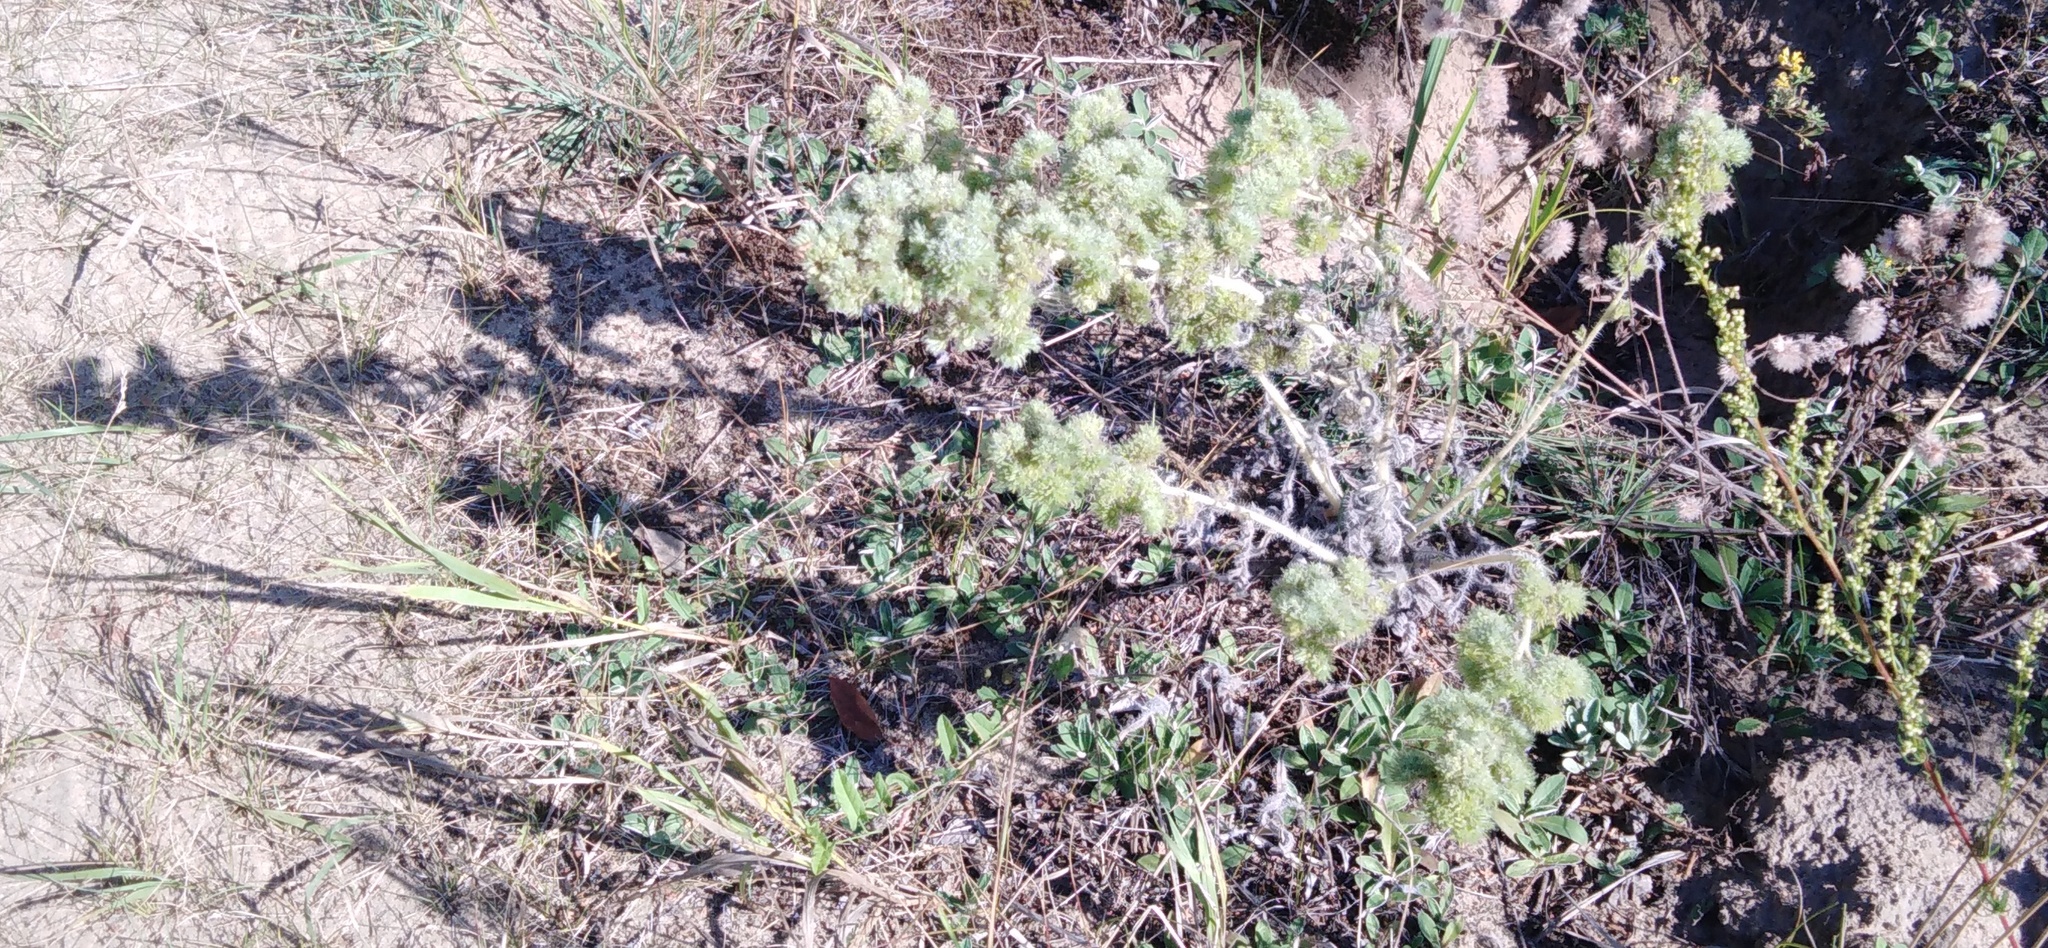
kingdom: Plantae
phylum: Tracheophyta
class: Magnoliopsida
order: Boraginales
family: Boraginaceae
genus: Echium
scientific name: Echium vulgare
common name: Common viper's bugloss
